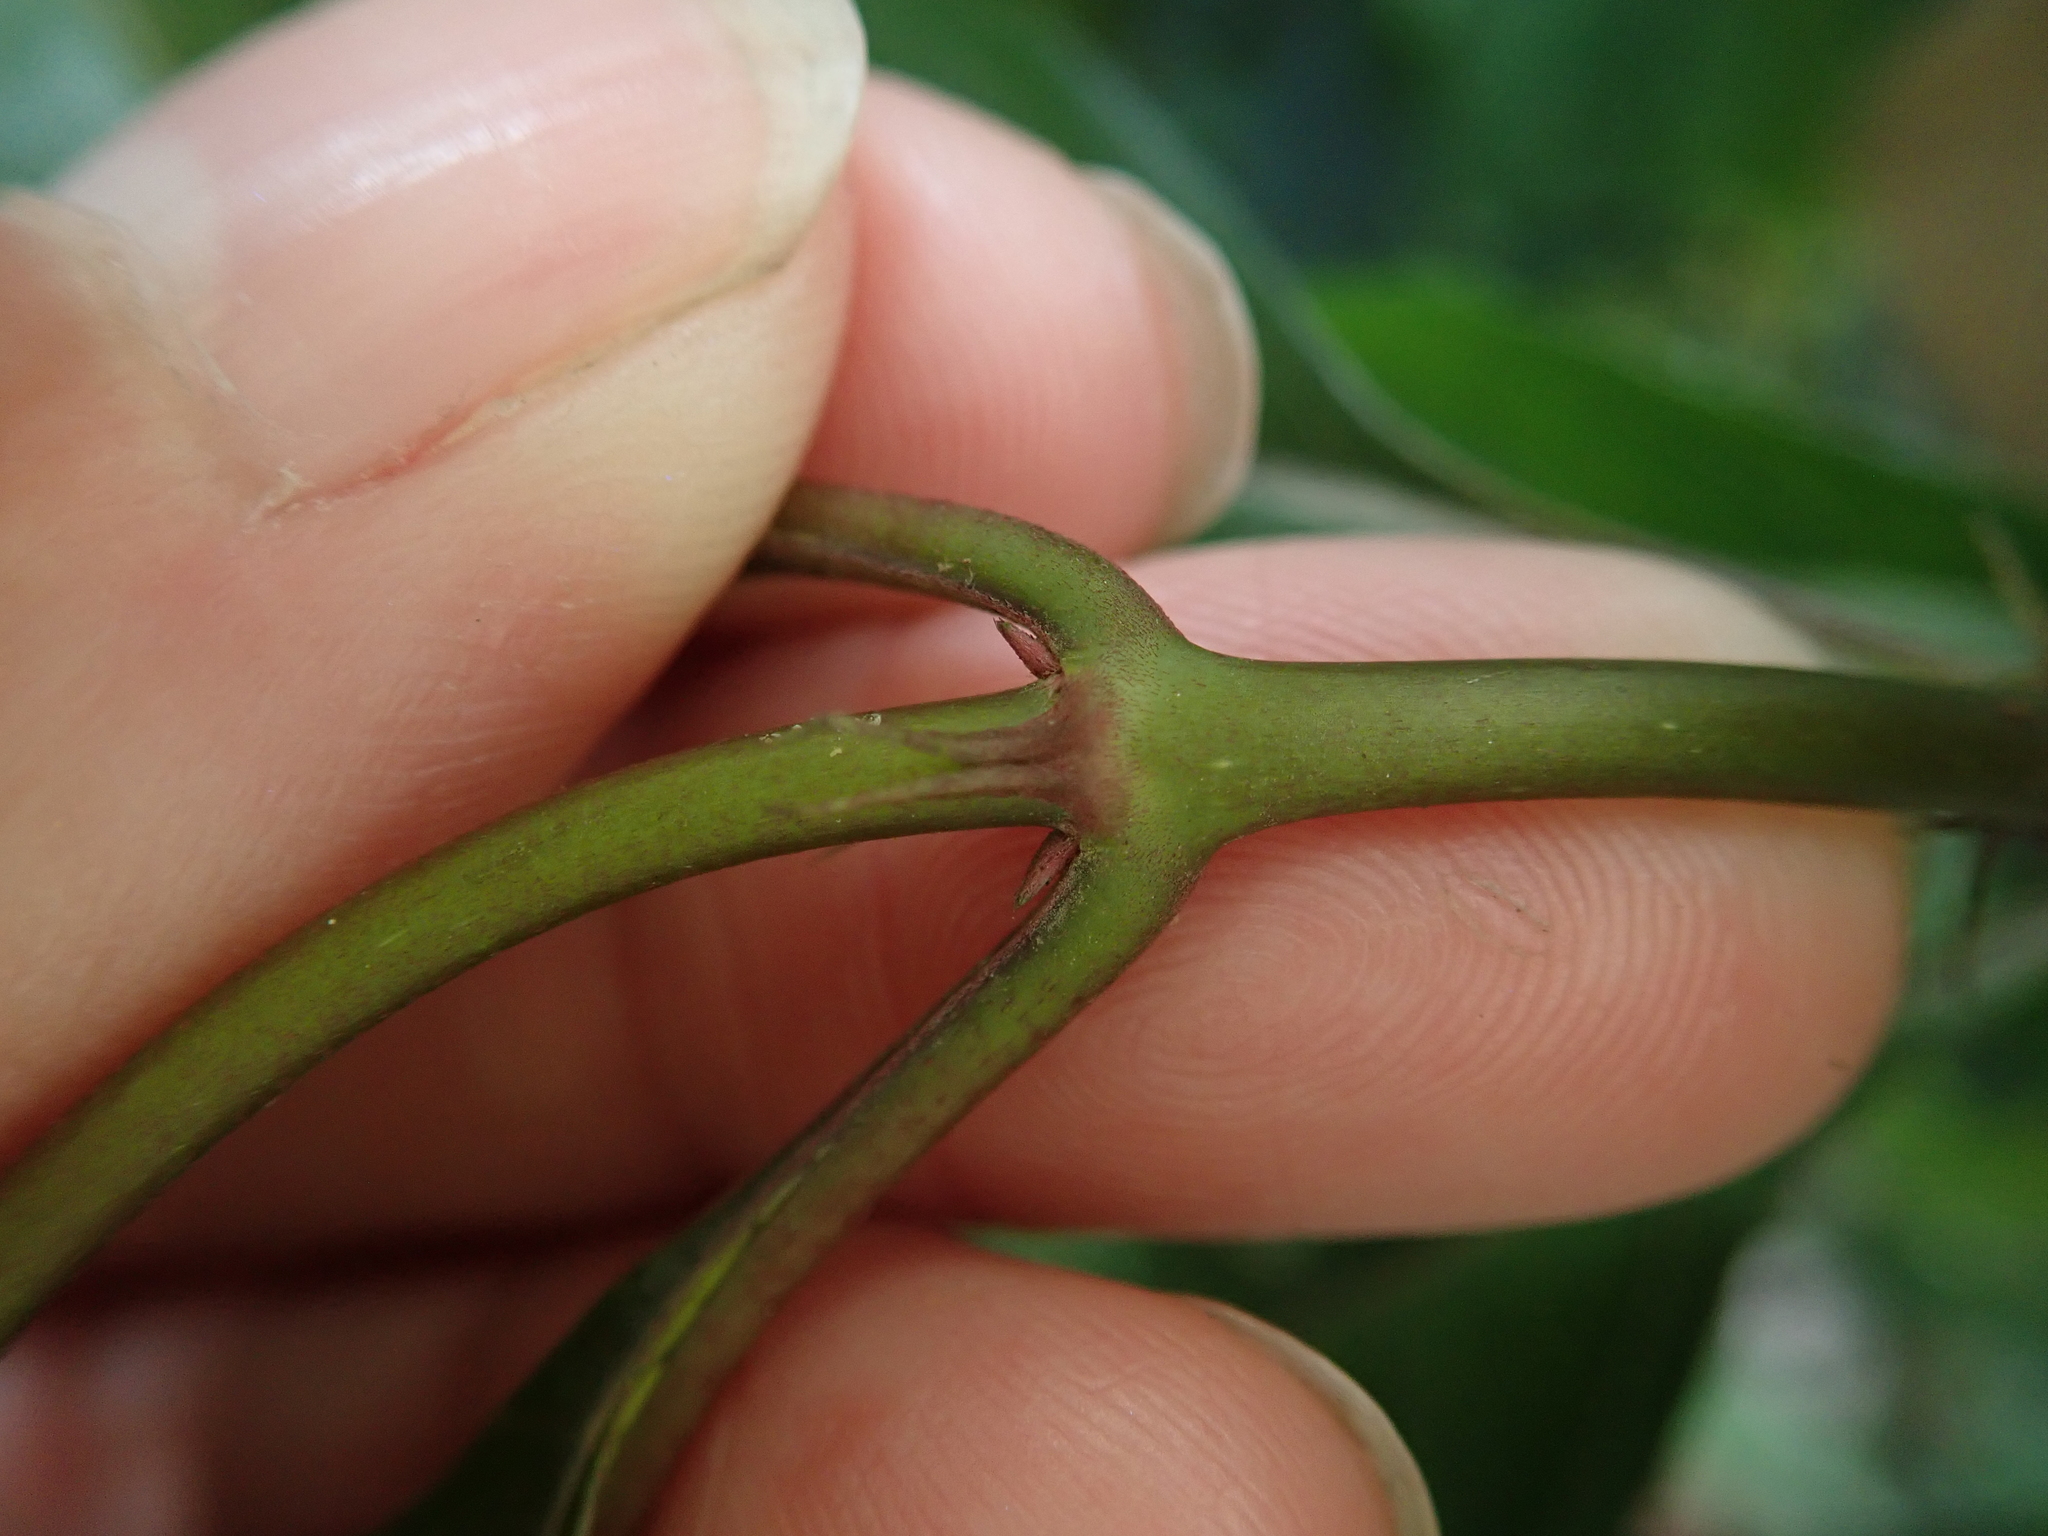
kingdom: Plantae
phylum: Tracheophyta
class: Magnoliopsida
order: Gentianales
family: Rubiaceae
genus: Mussaenda
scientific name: Mussaenda parviflora
